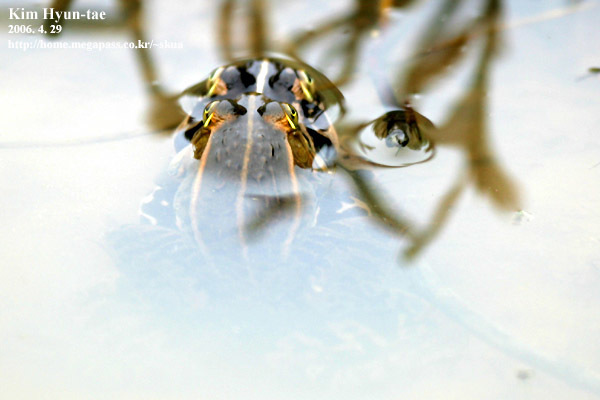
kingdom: Animalia
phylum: Chordata
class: Amphibia
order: Anura
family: Ranidae
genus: Pelophylax
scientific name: Pelophylax nigromaculatus
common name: Black-spotted pond frog
